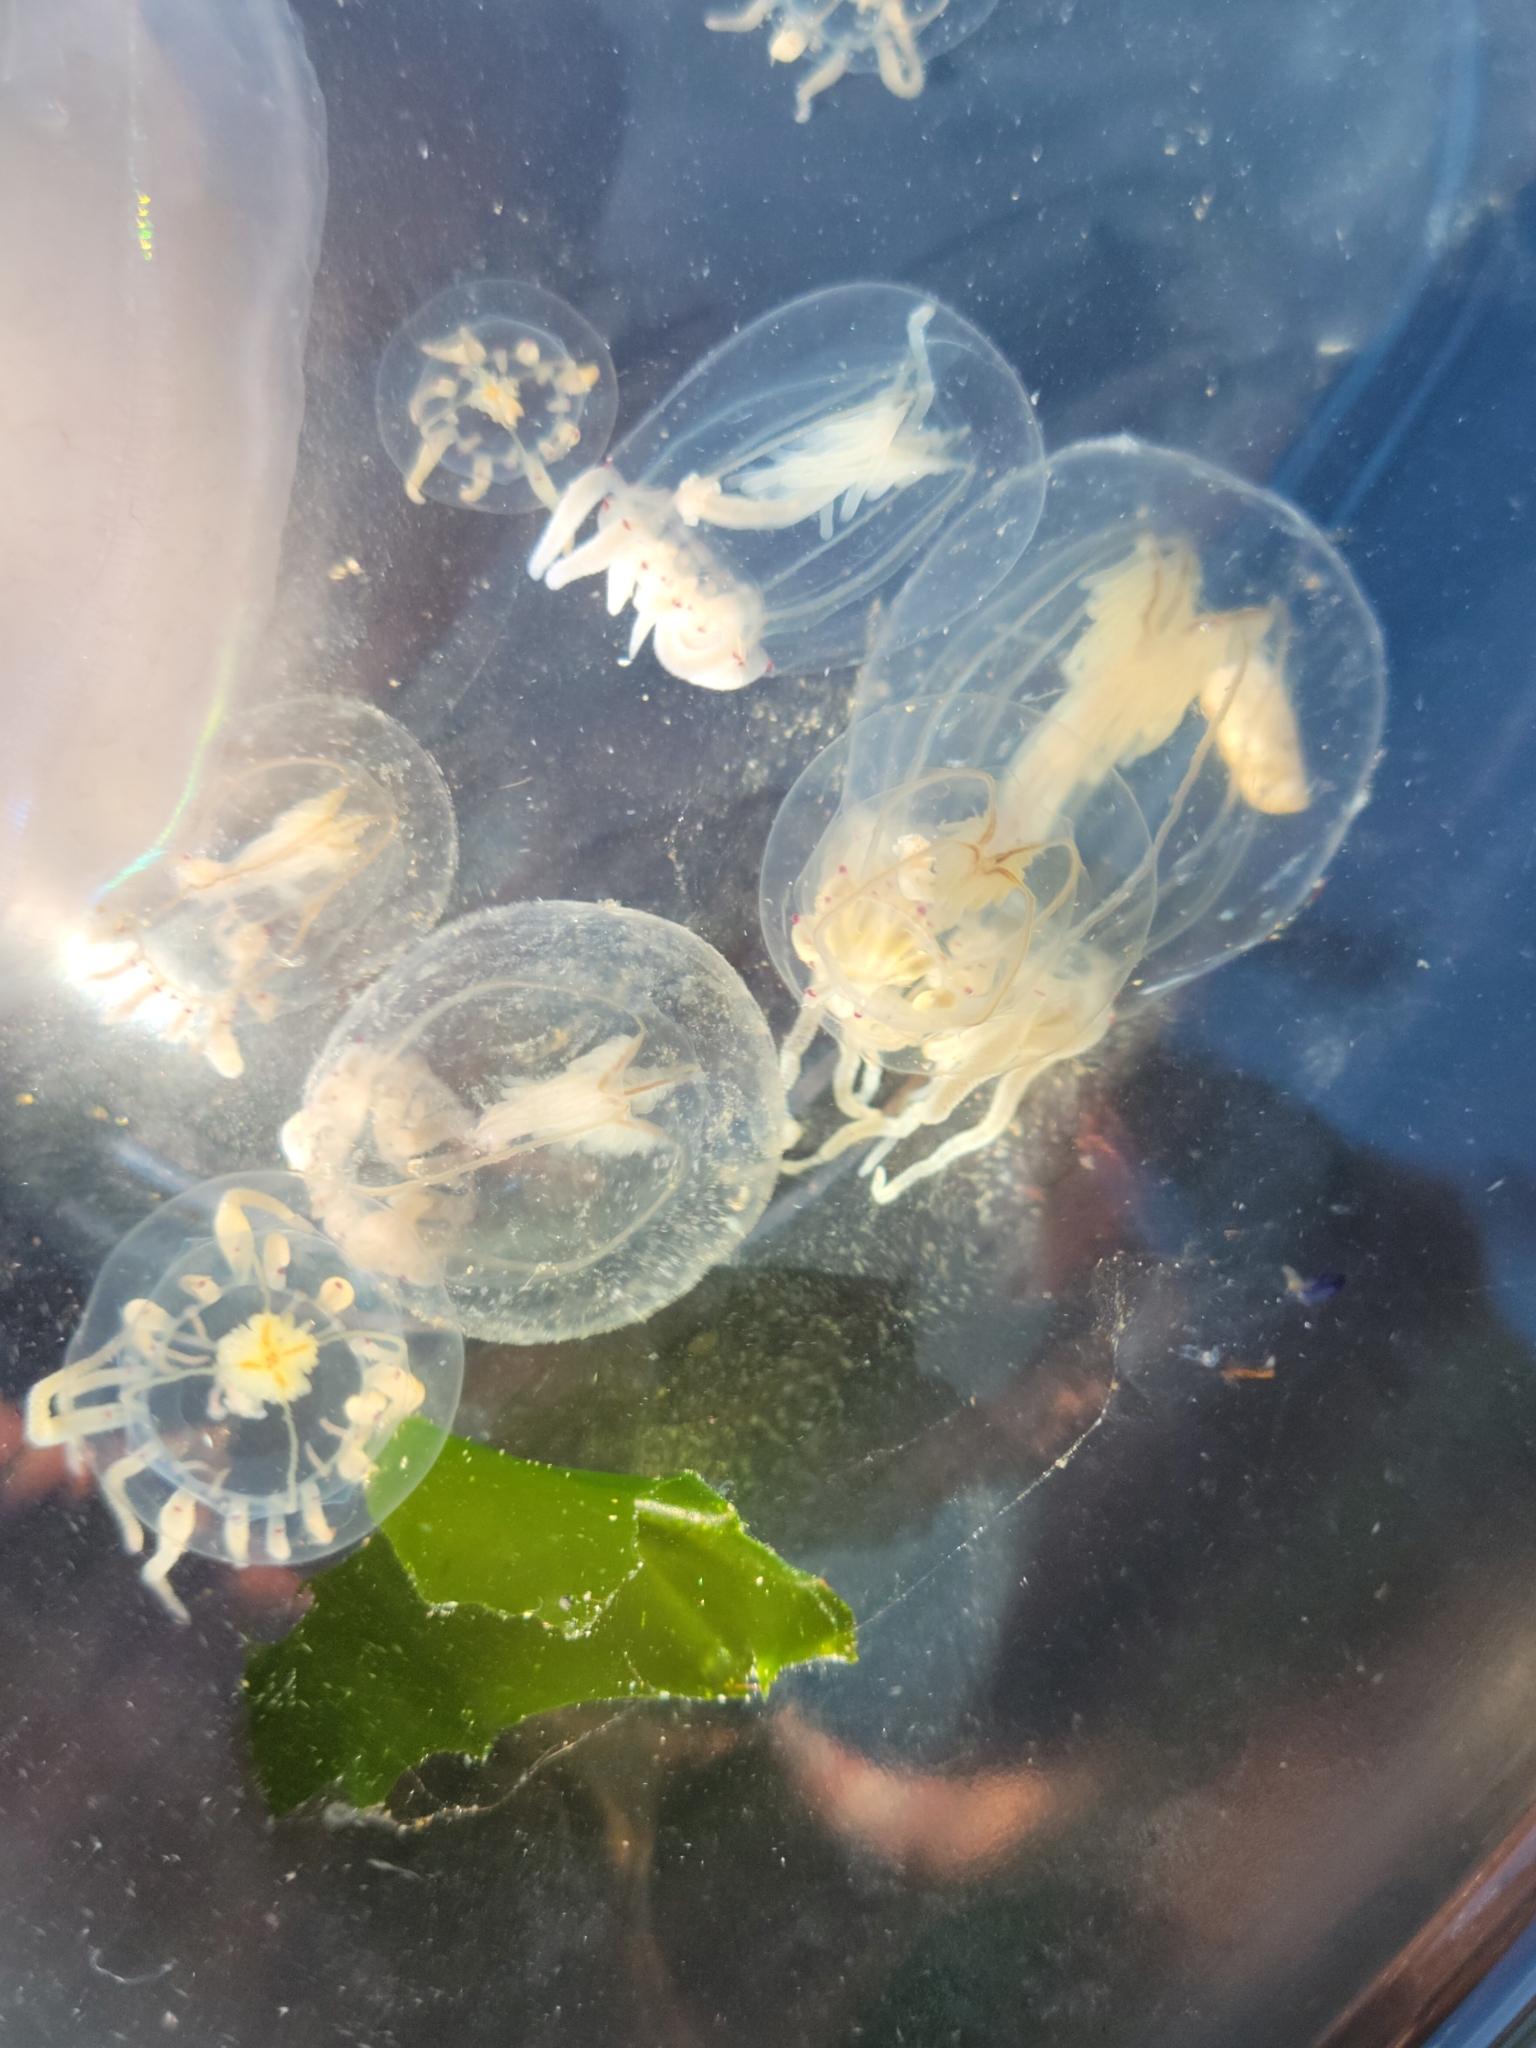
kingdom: Animalia
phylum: Cnidaria
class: Hydrozoa
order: Anthoathecata
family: Corynidae
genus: Polyorchis
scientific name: Polyorchis haplus
